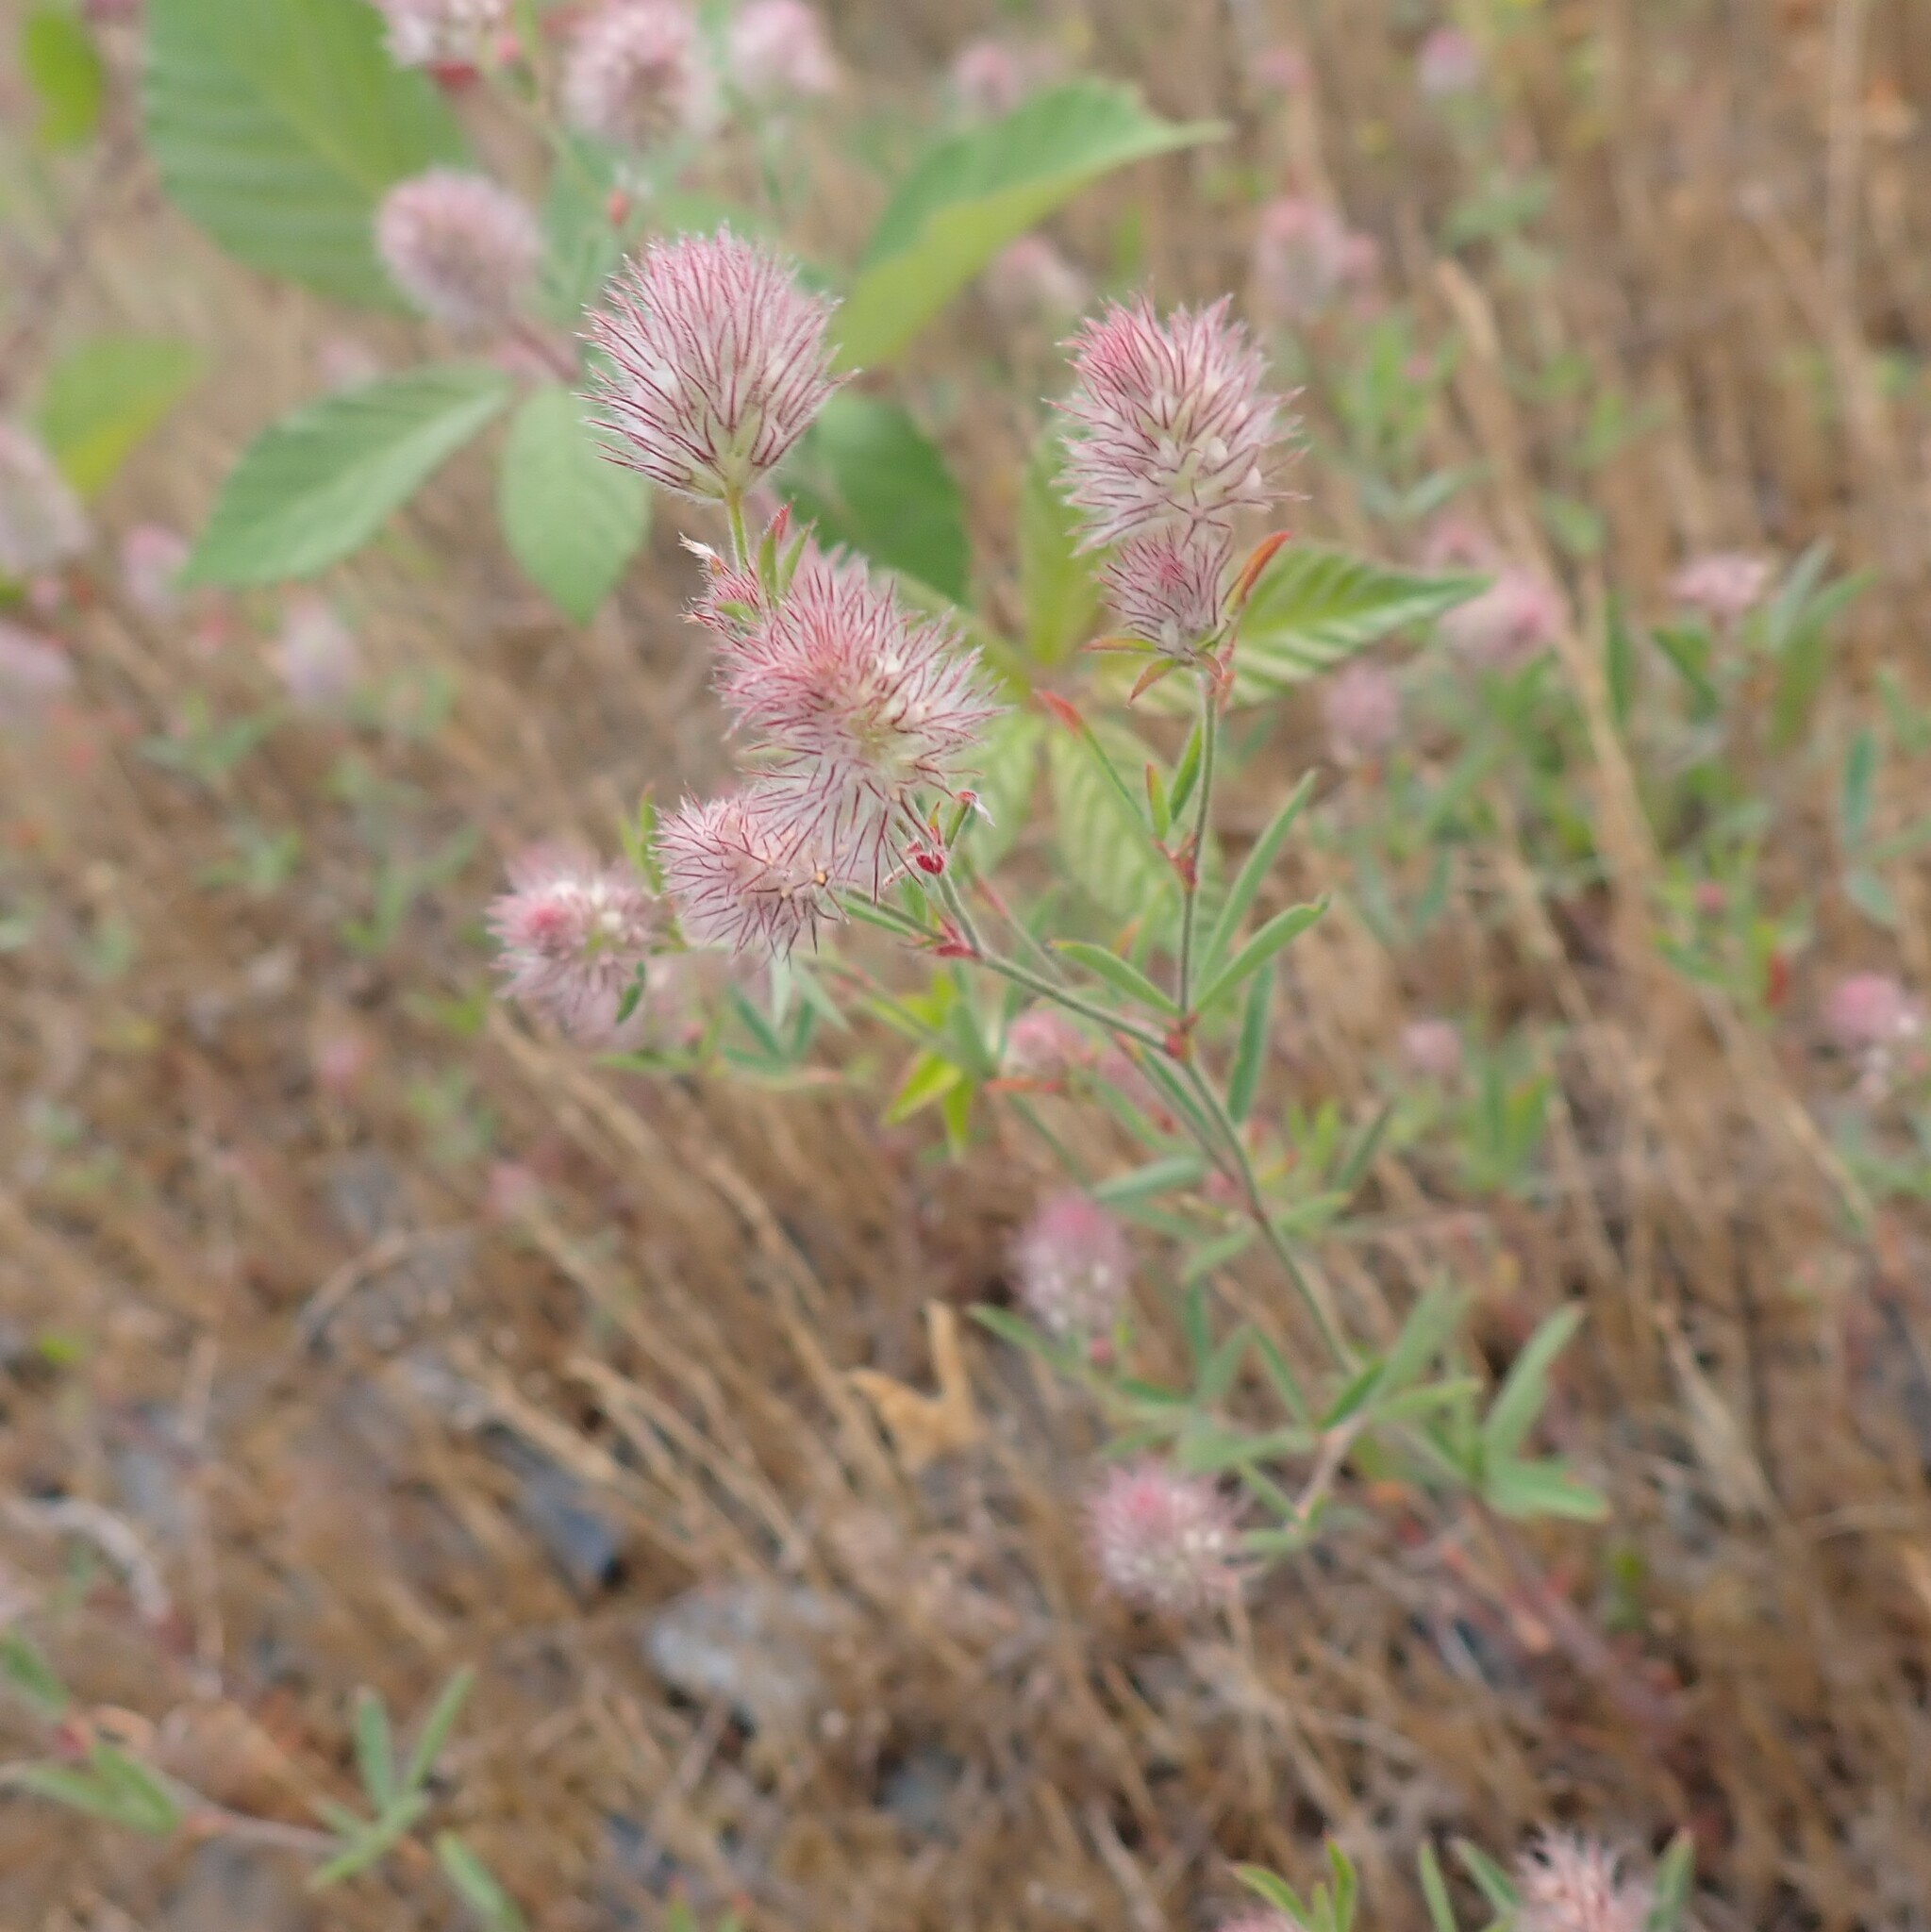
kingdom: Plantae
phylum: Tracheophyta
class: Magnoliopsida
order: Fabales
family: Fabaceae
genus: Trifolium
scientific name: Trifolium arvense
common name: Hare's-foot clover
